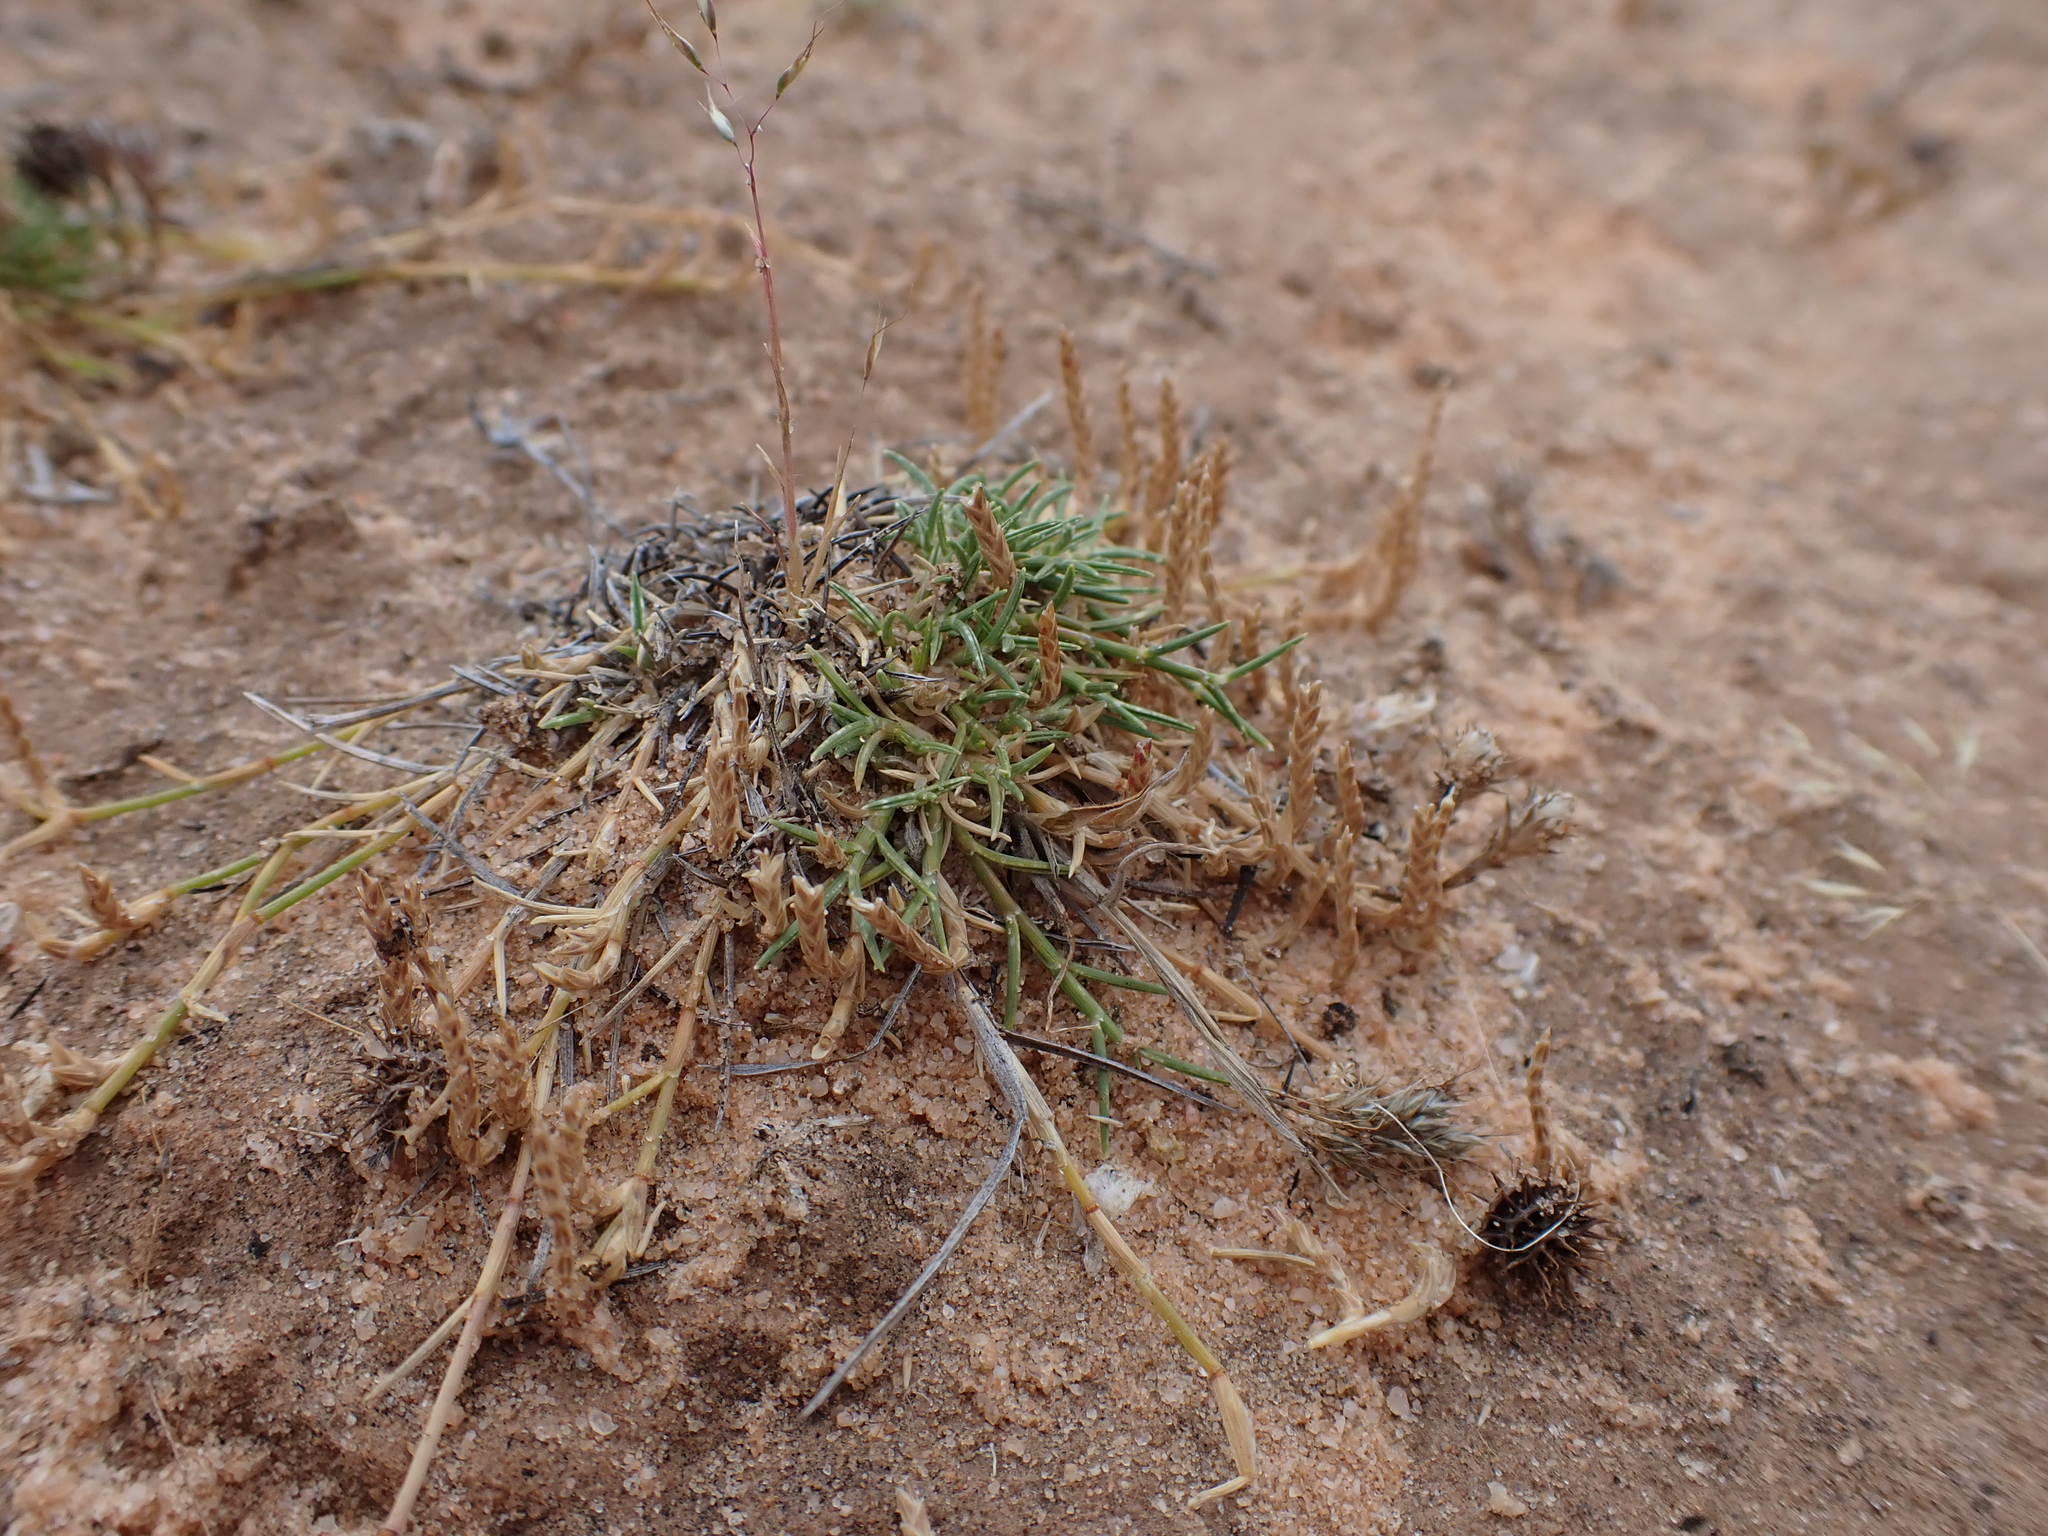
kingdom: Plantae
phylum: Tracheophyta
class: Liliopsida
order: Poales
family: Poaceae
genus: Eragrostis
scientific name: Eragrostis dielsii
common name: Lovegrass
